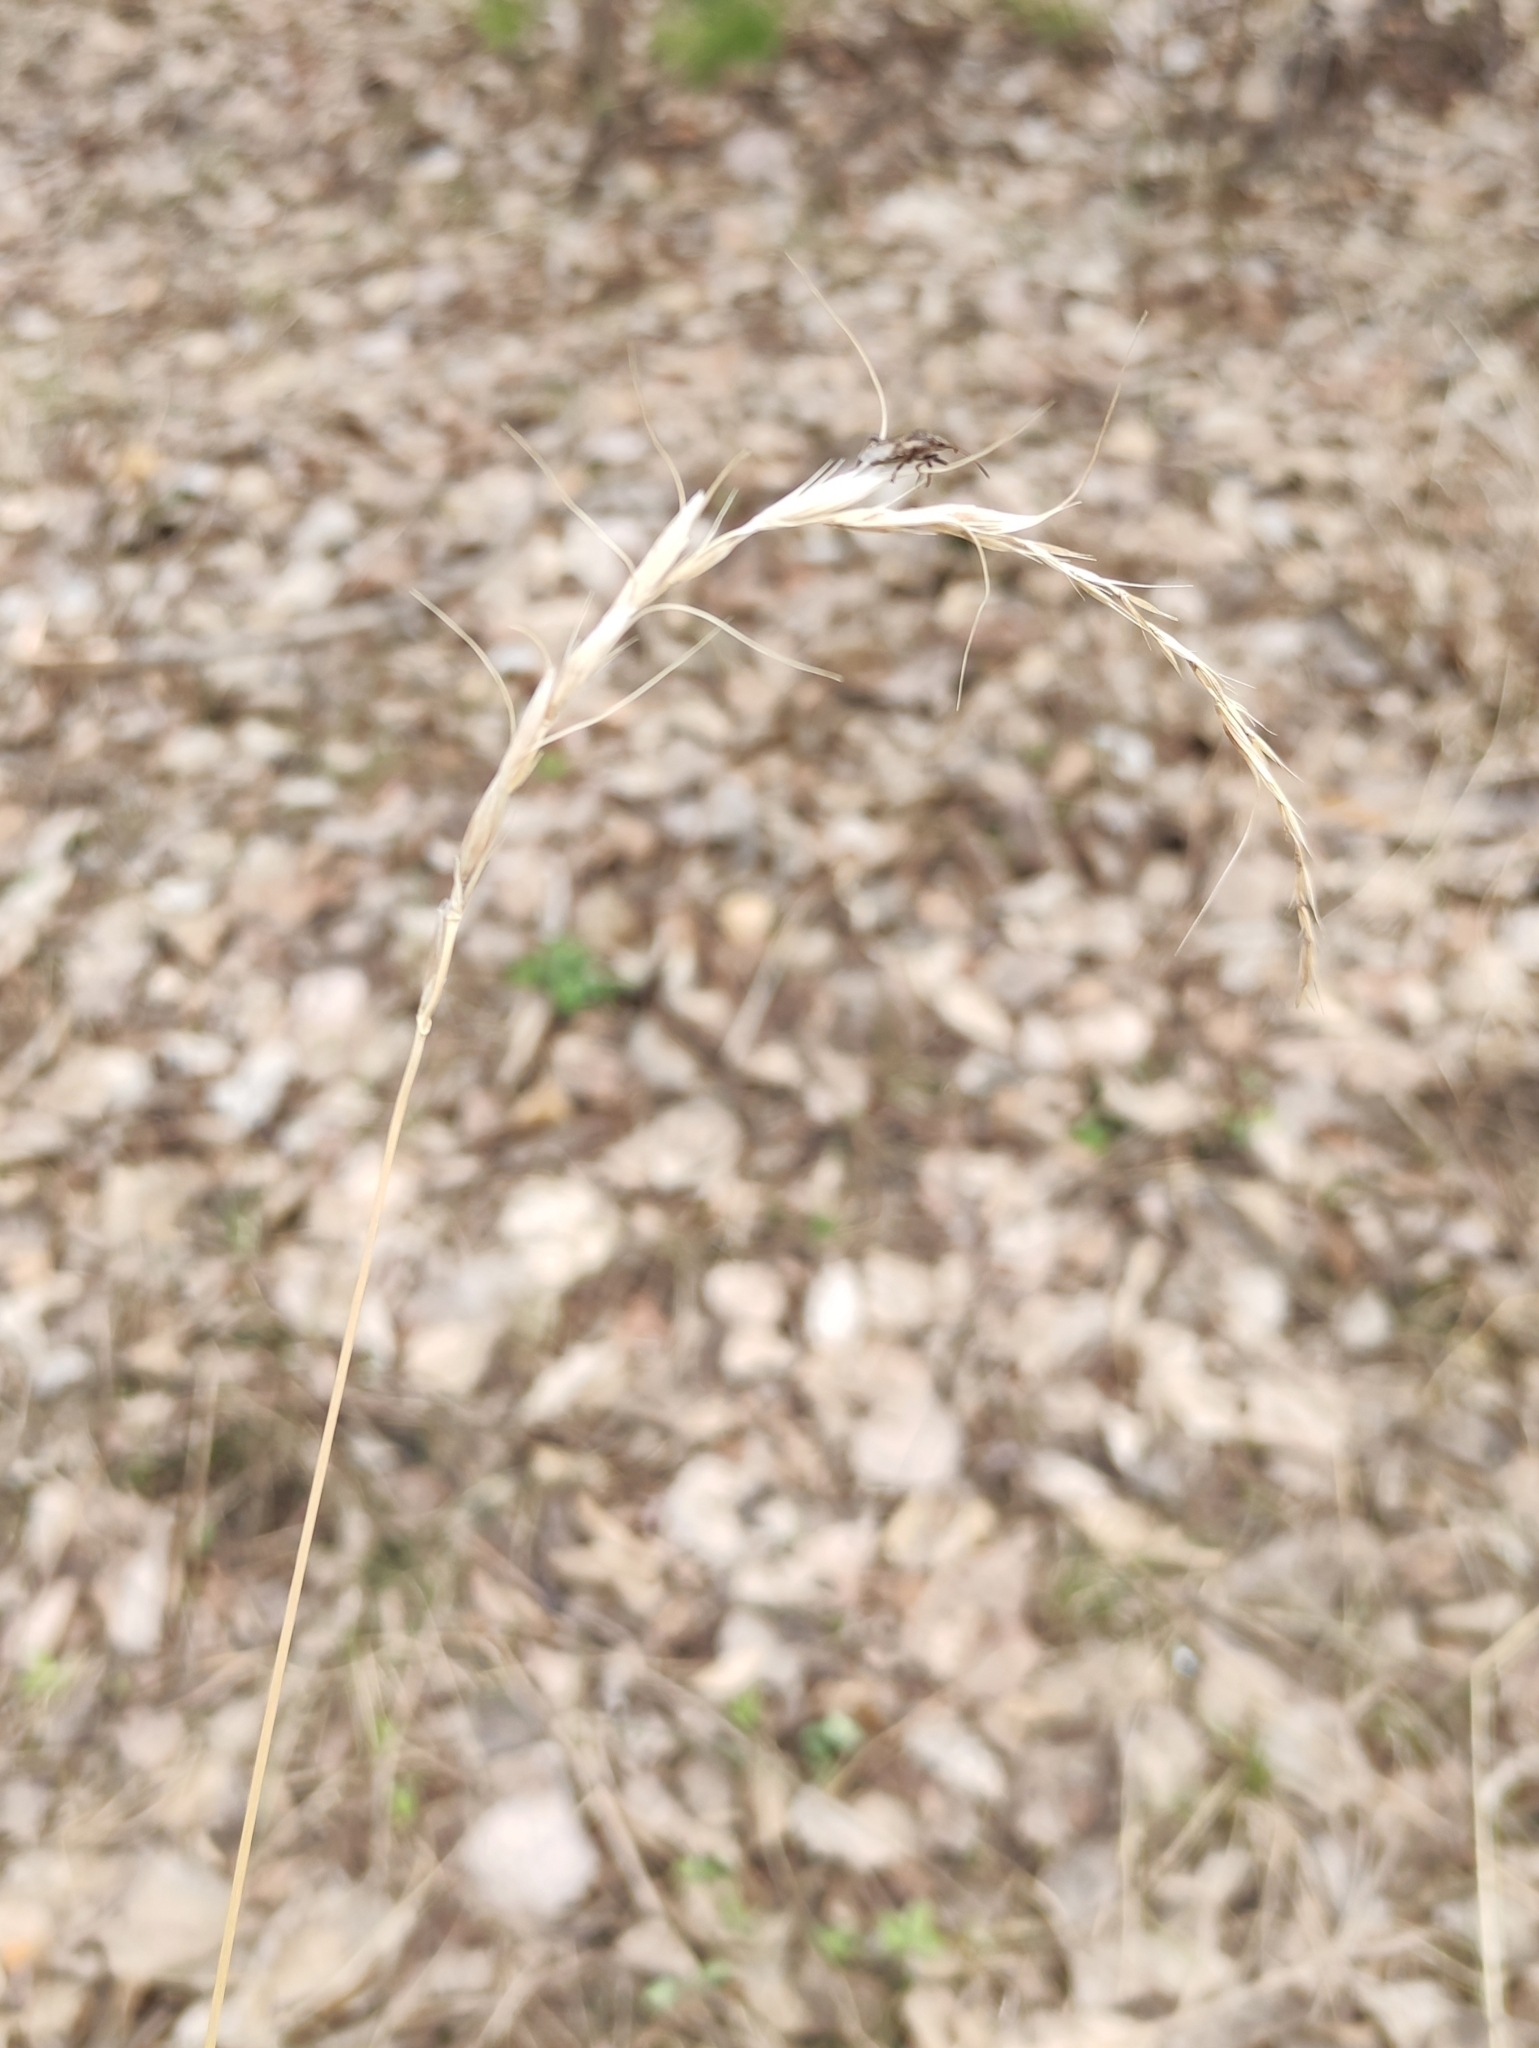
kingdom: Plantae
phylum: Tracheophyta
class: Liliopsida
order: Poales
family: Poaceae
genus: Elymus
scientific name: Elymus sibiricus
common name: Siberian wildrye
